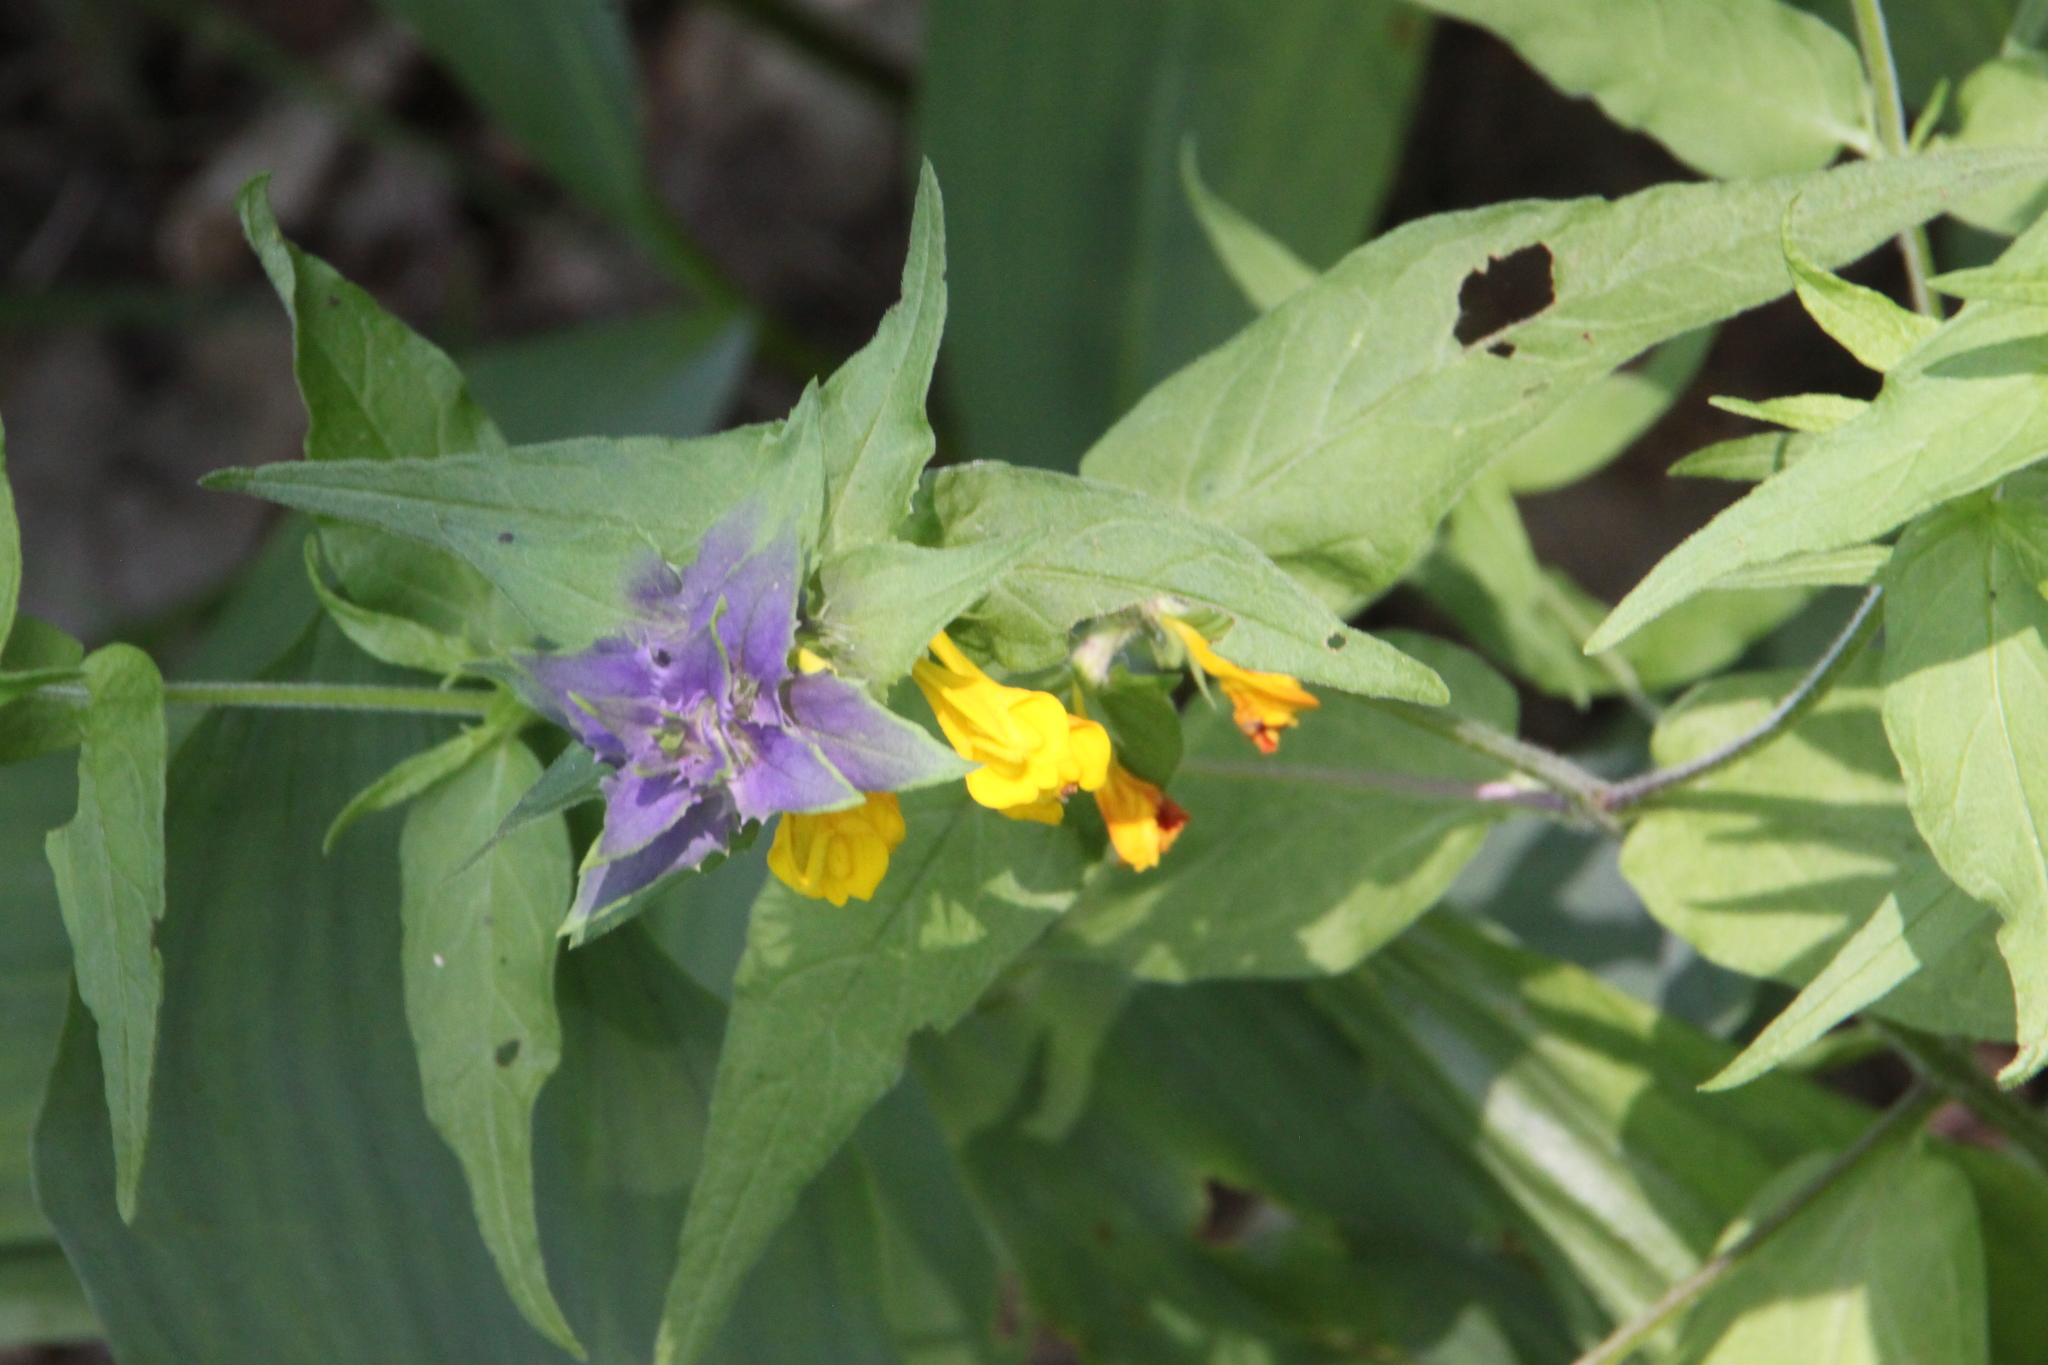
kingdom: Plantae
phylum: Tracheophyta
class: Magnoliopsida
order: Lamiales
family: Orobanchaceae
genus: Melampyrum
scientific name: Melampyrum nemorosum
